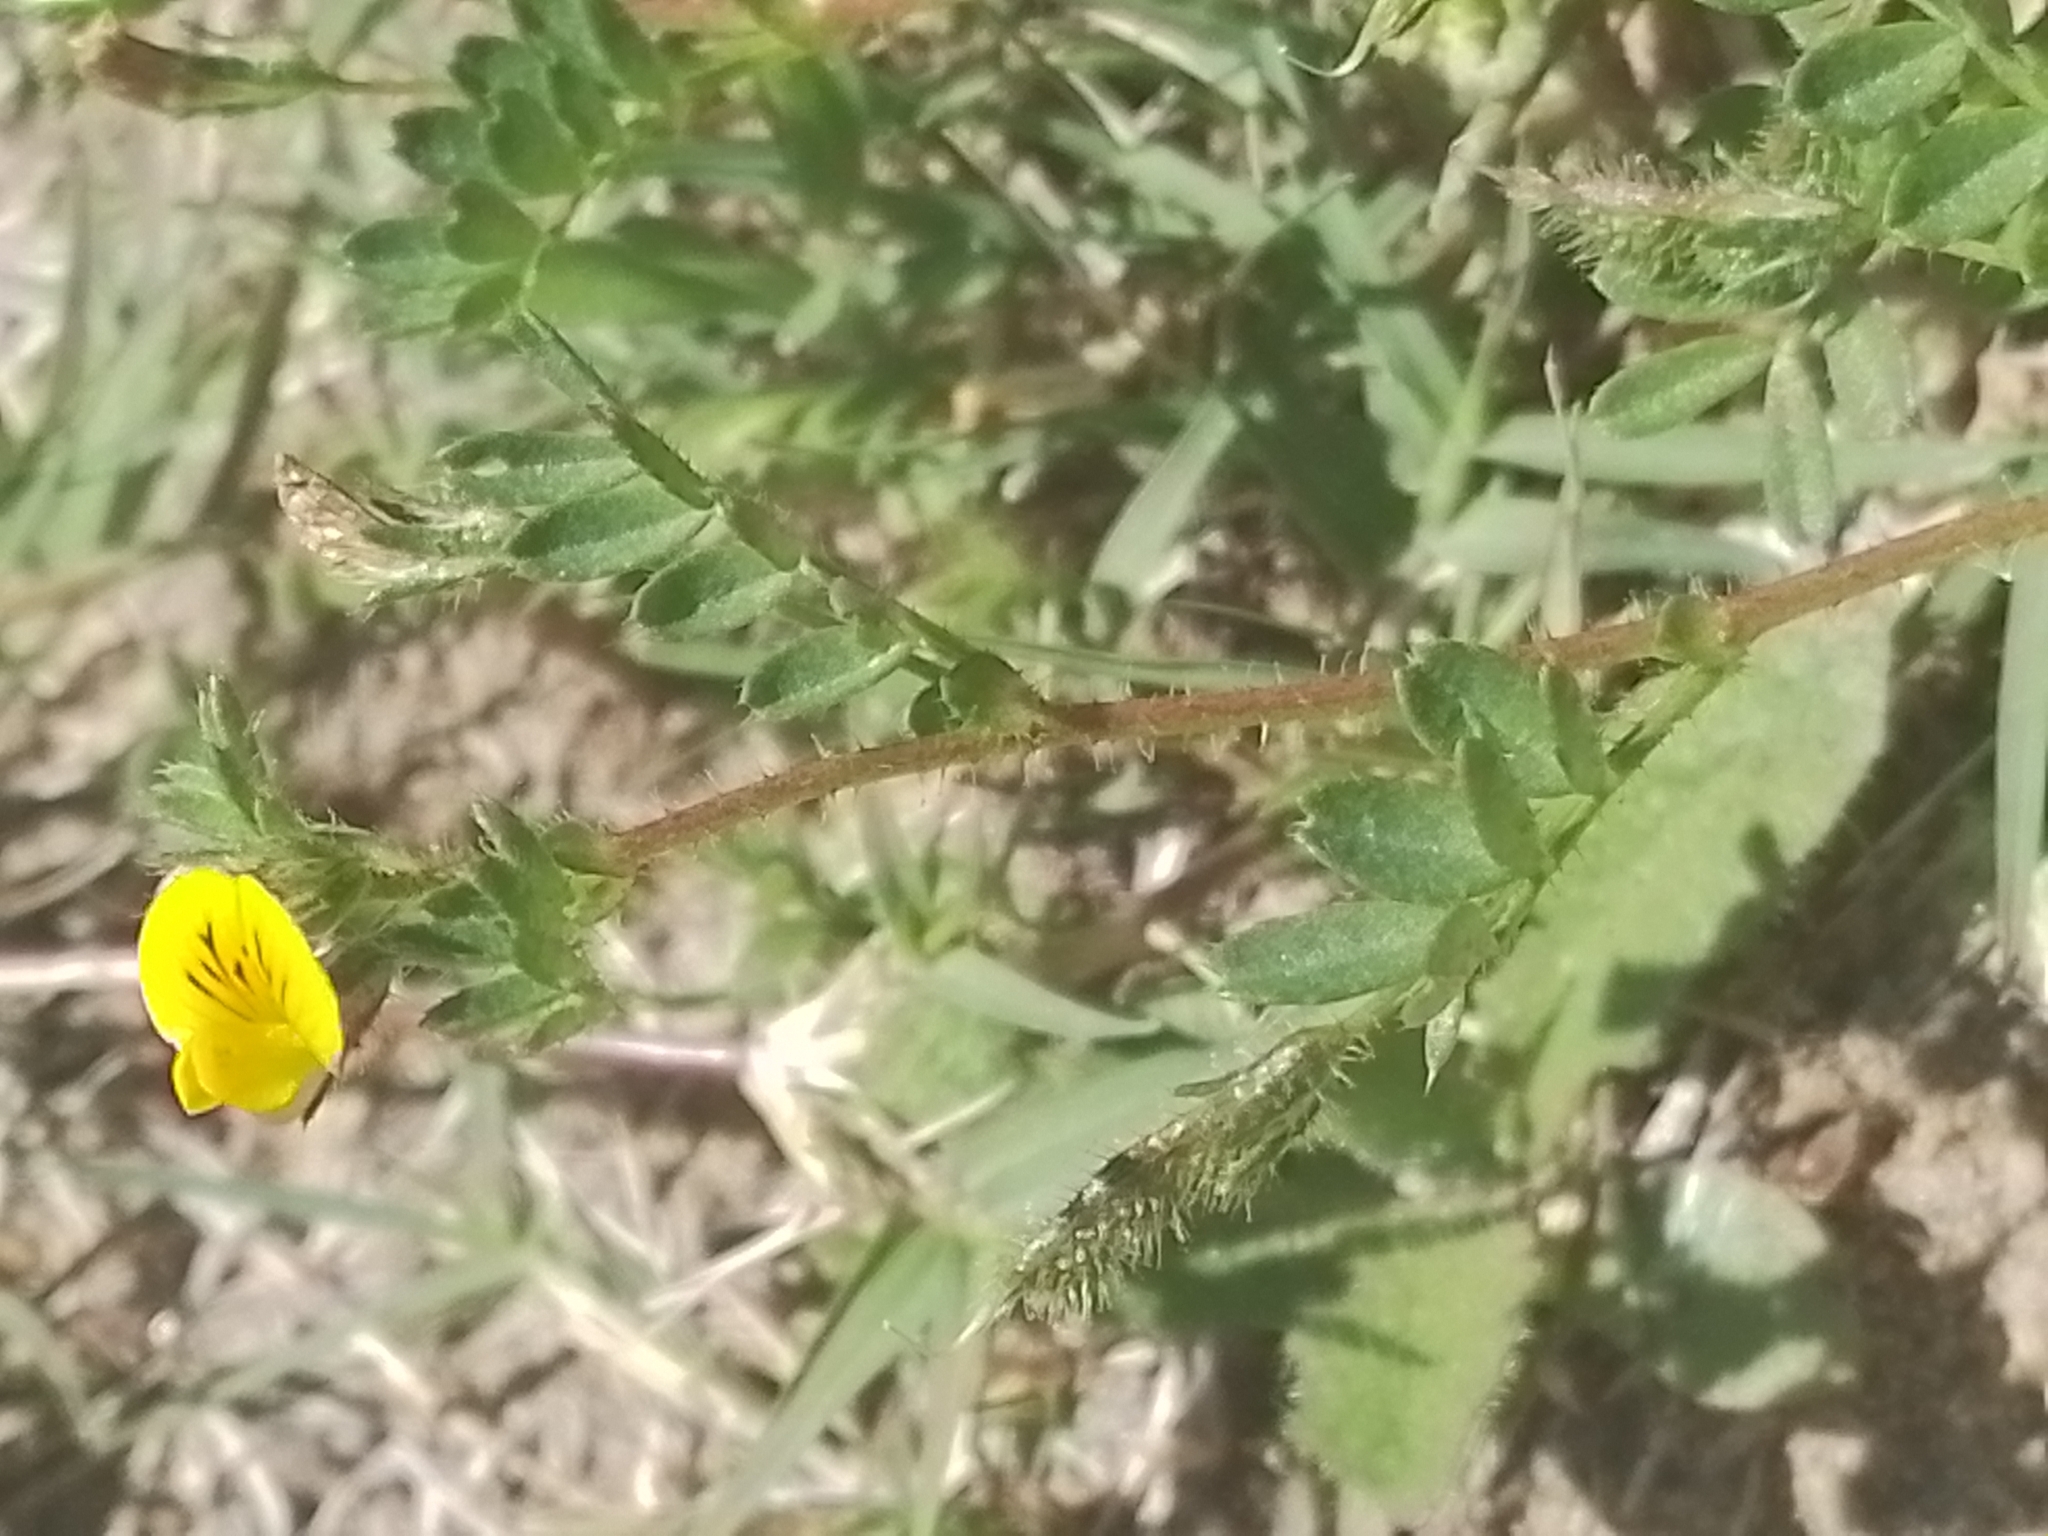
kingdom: Plantae
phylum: Tracheophyta
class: Magnoliopsida
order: Fabales
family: Fabaceae
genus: Adesmia
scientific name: Adesmia securigerifolia
